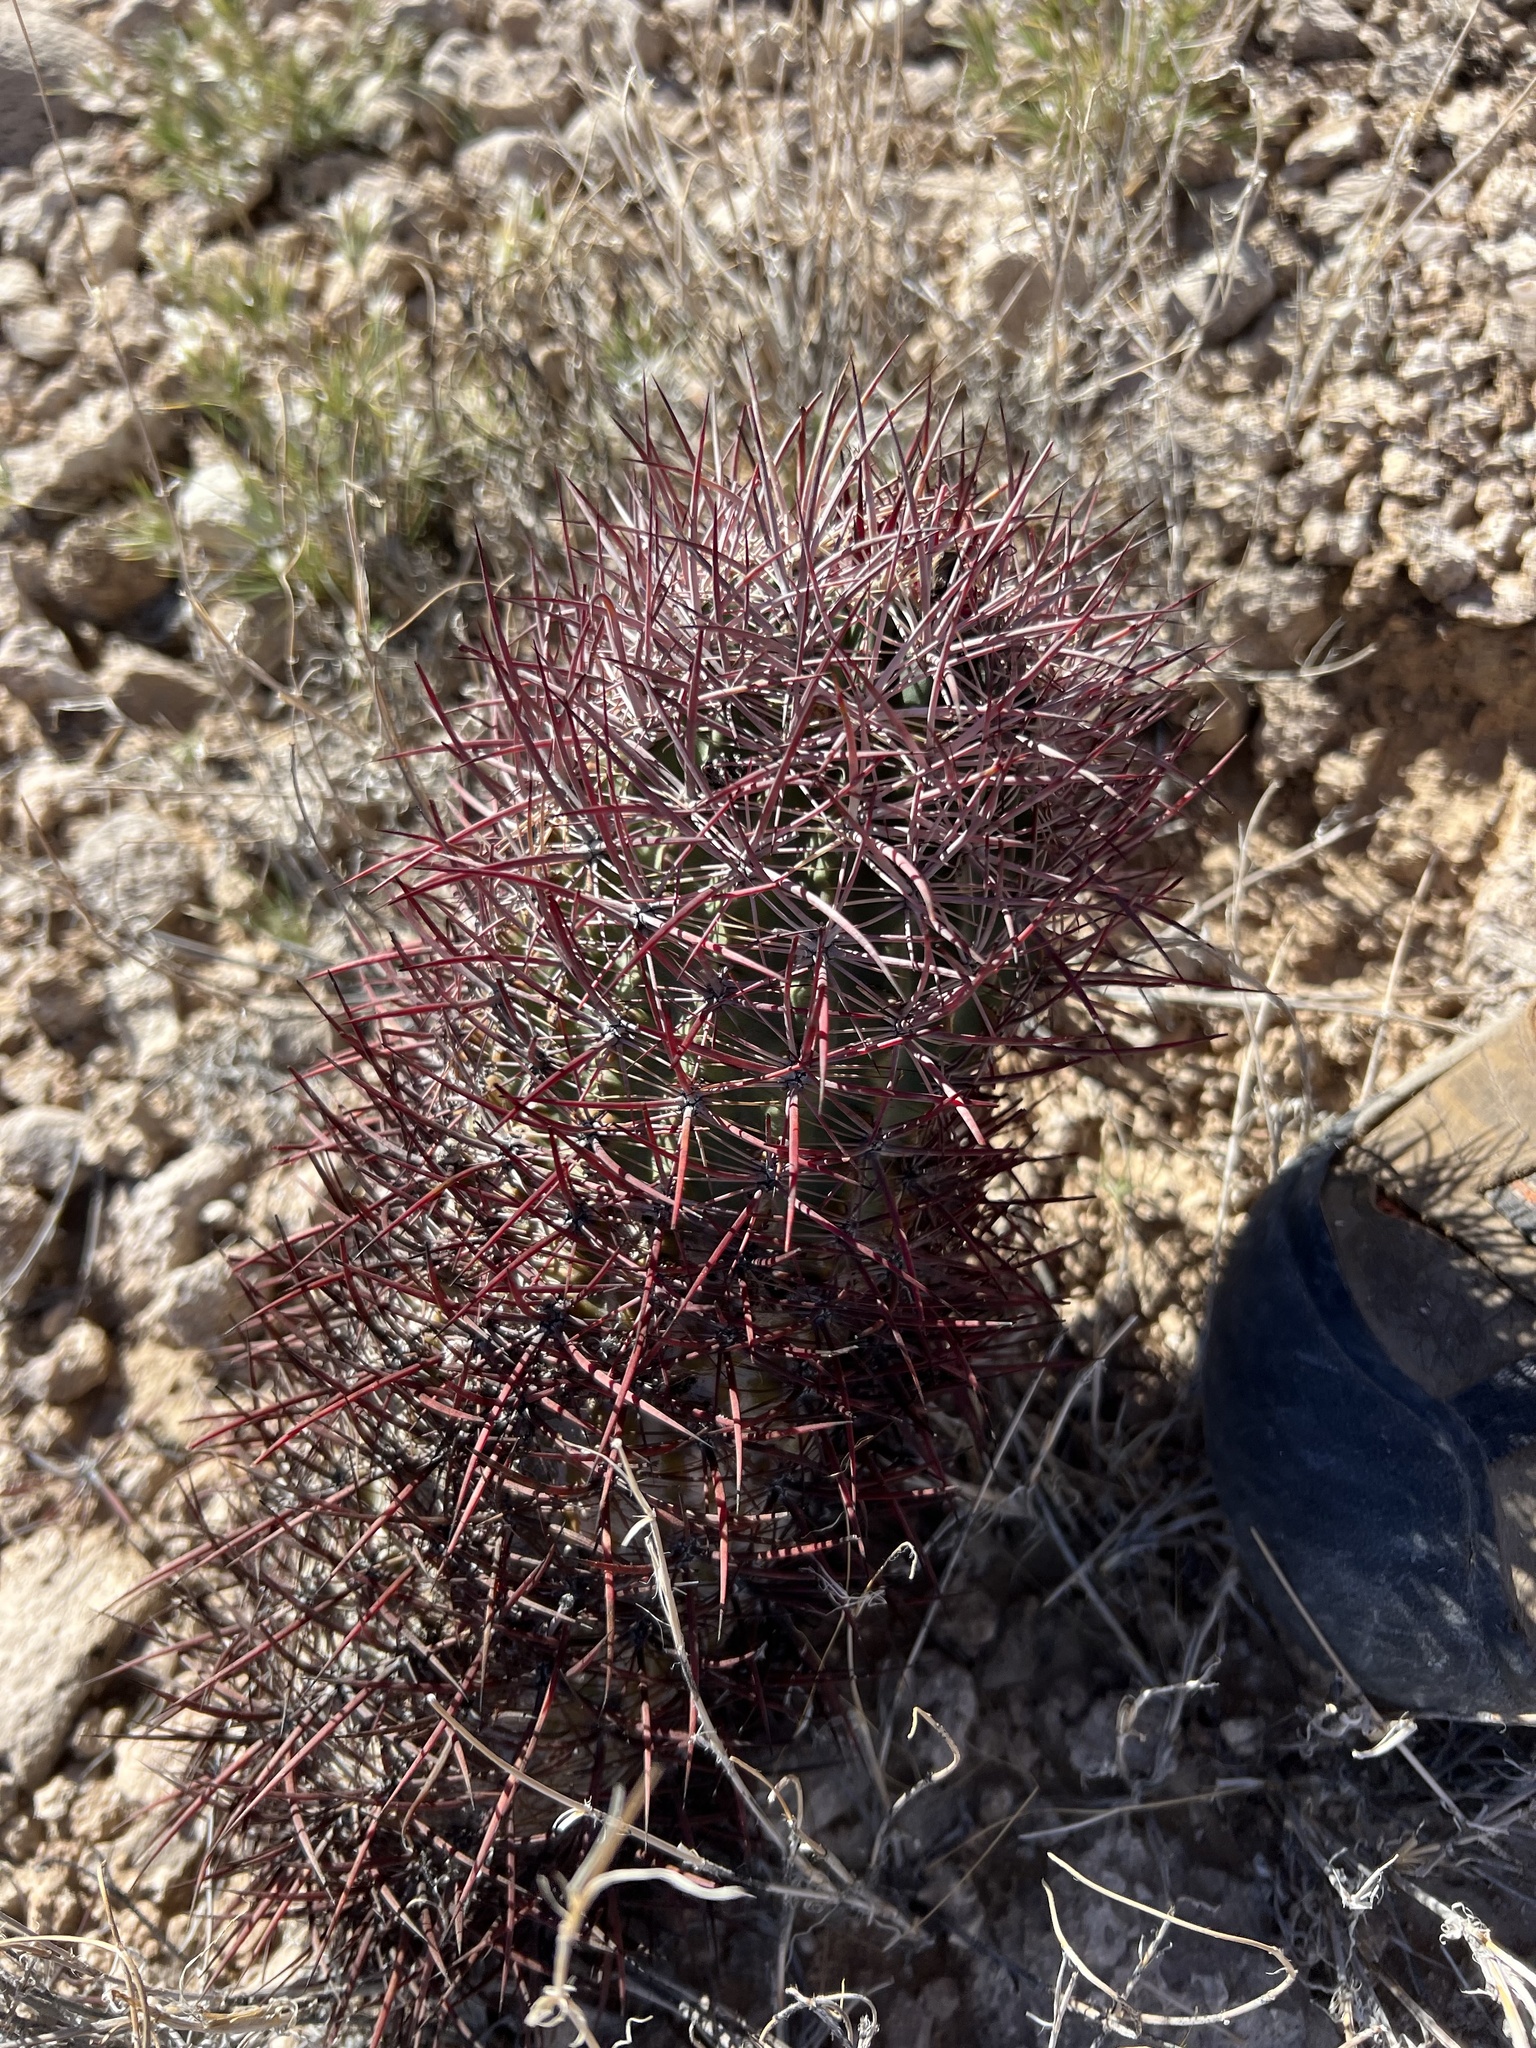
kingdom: Plantae
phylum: Tracheophyta
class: Magnoliopsida
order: Caryophyllales
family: Cactaceae
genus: Sclerocactus
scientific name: Sclerocactus johnsonii
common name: Eight-spine fishhook cactus
